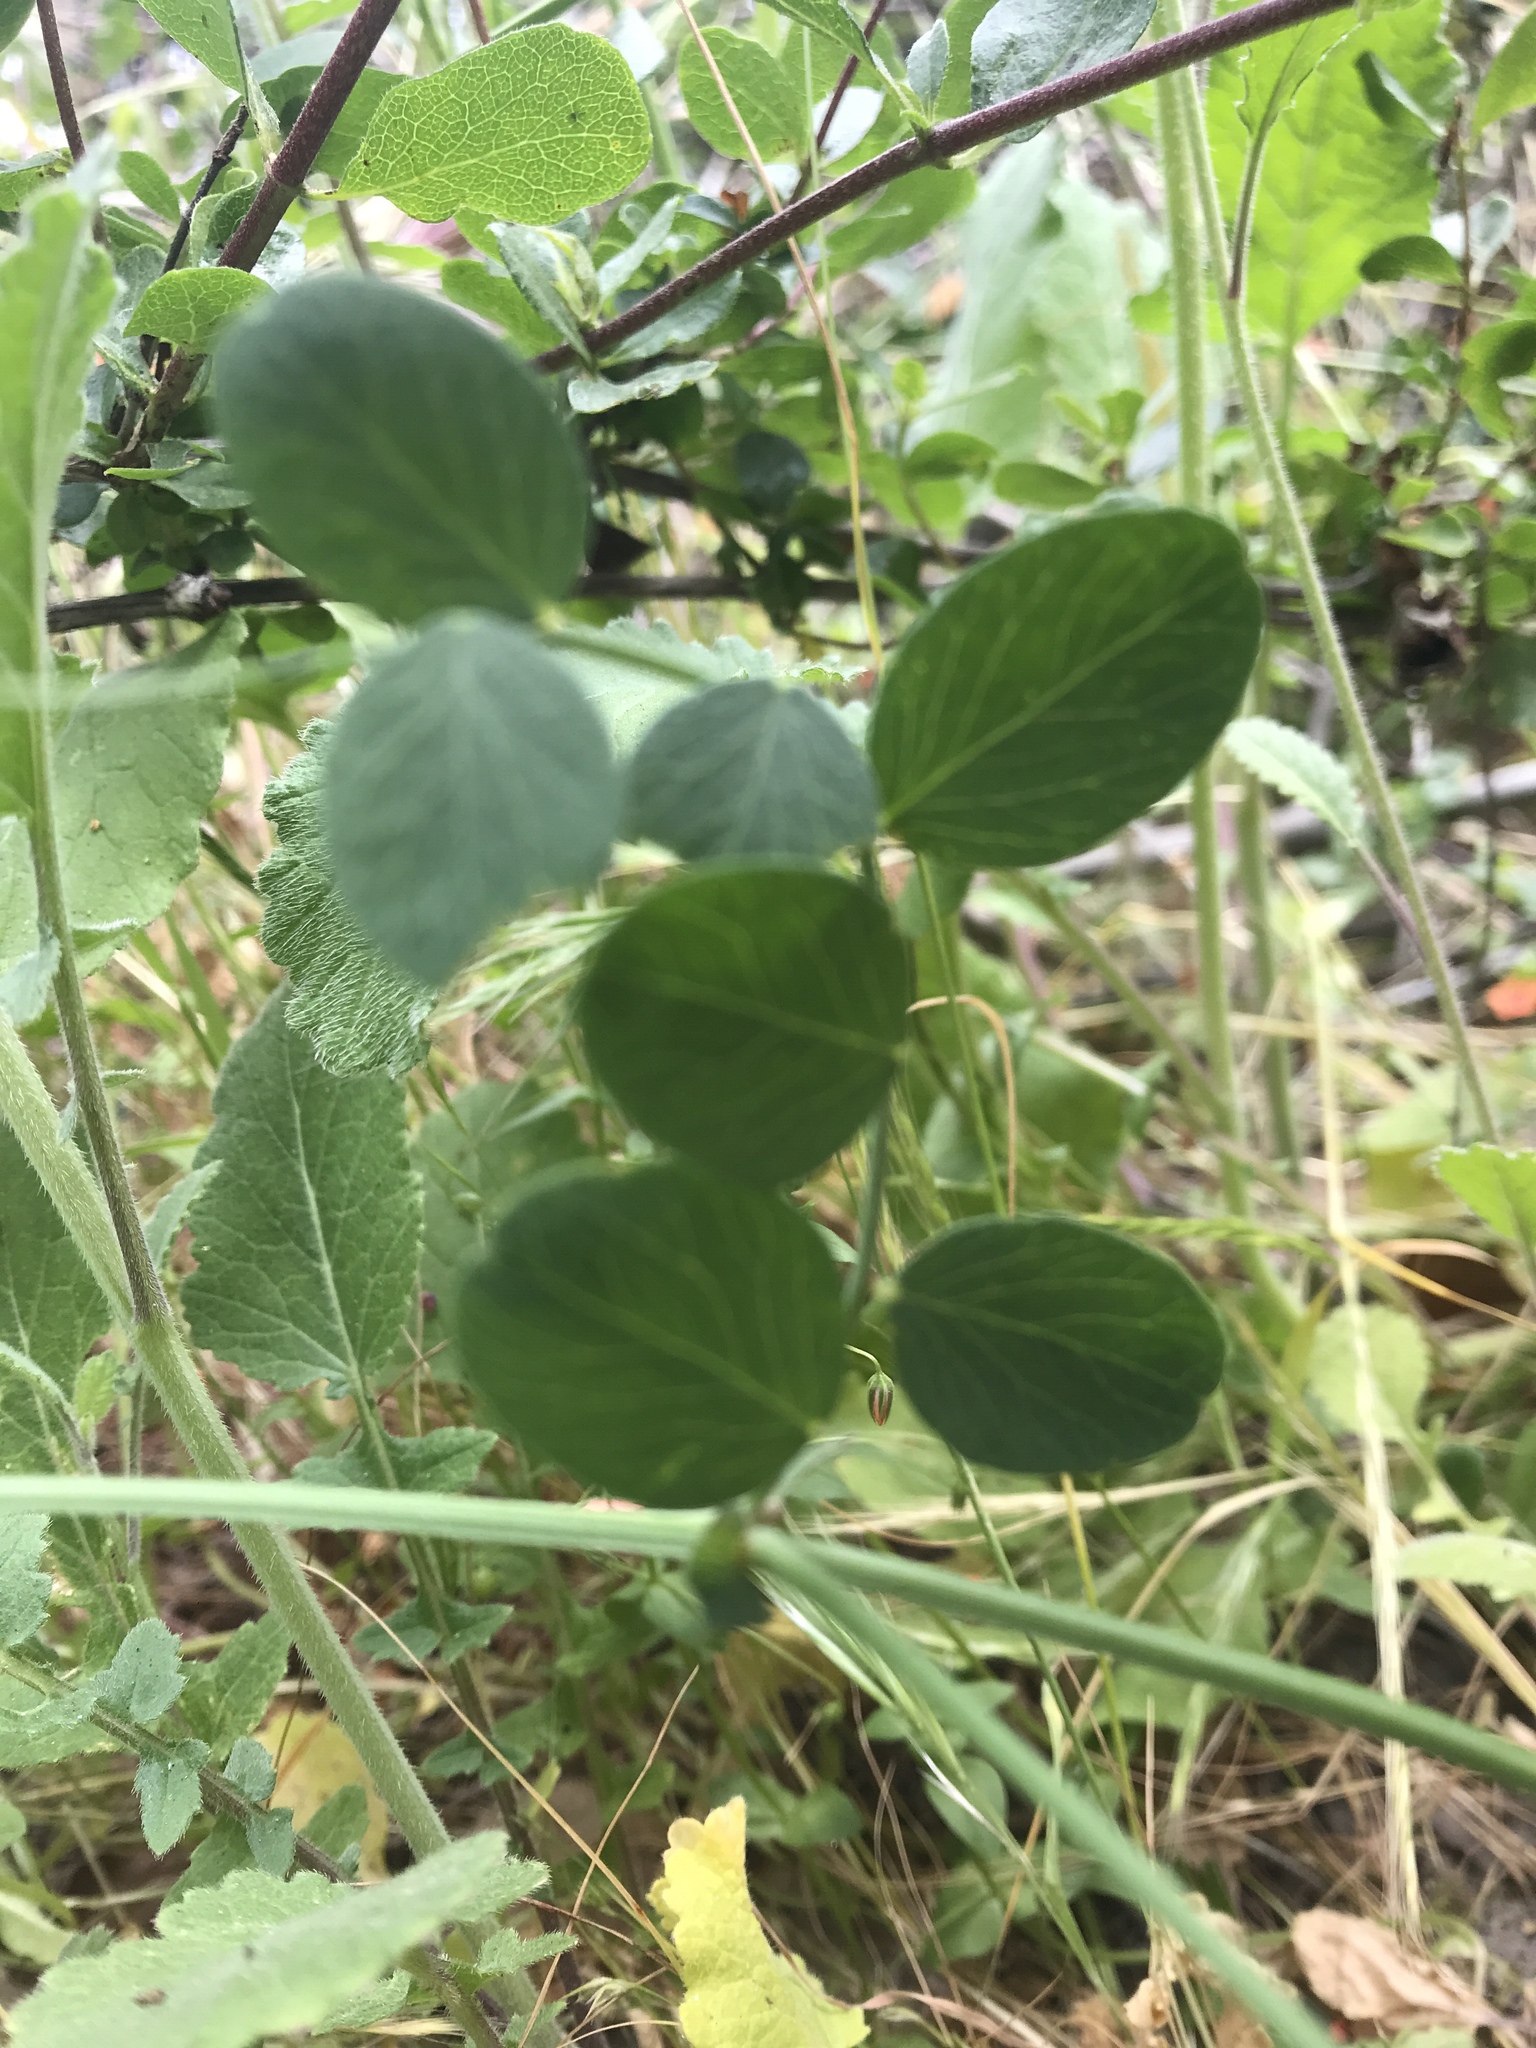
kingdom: Plantae
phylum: Tracheophyta
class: Magnoliopsida
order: Fabales
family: Fabaceae
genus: Lathyrus
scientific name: Lathyrus vestitus
